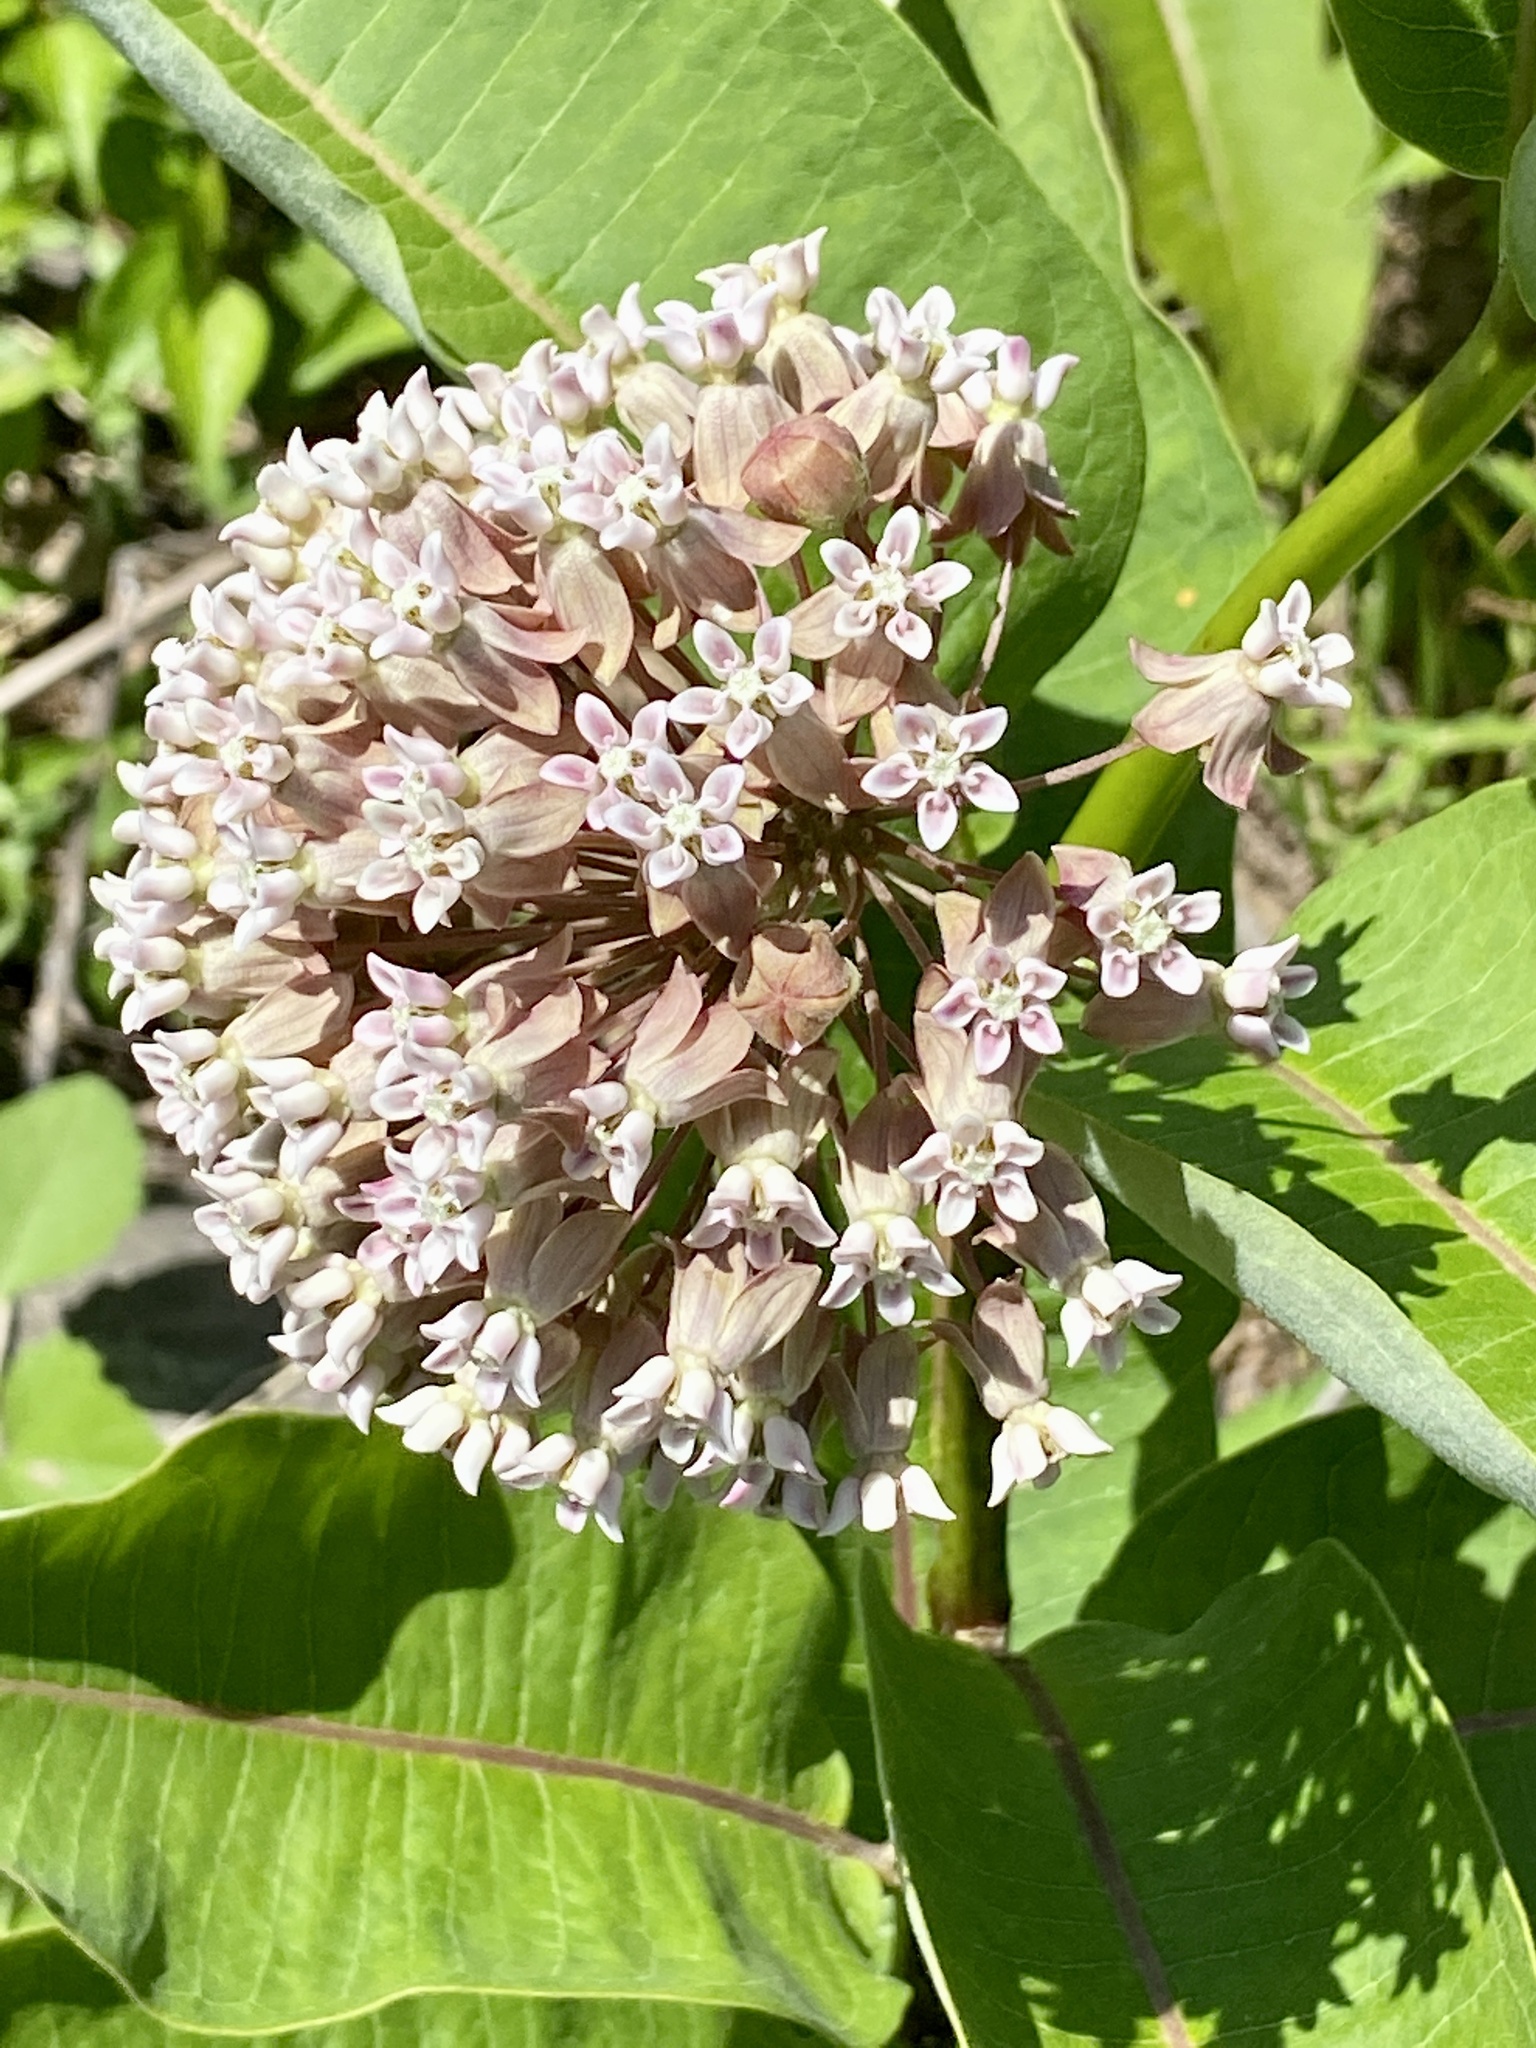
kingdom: Plantae
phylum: Tracheophyta
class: Magnoliopsida
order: Gentianales
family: Apocynaceae
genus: Asclepias
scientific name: Asclepias syriaca
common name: Common milkweed
